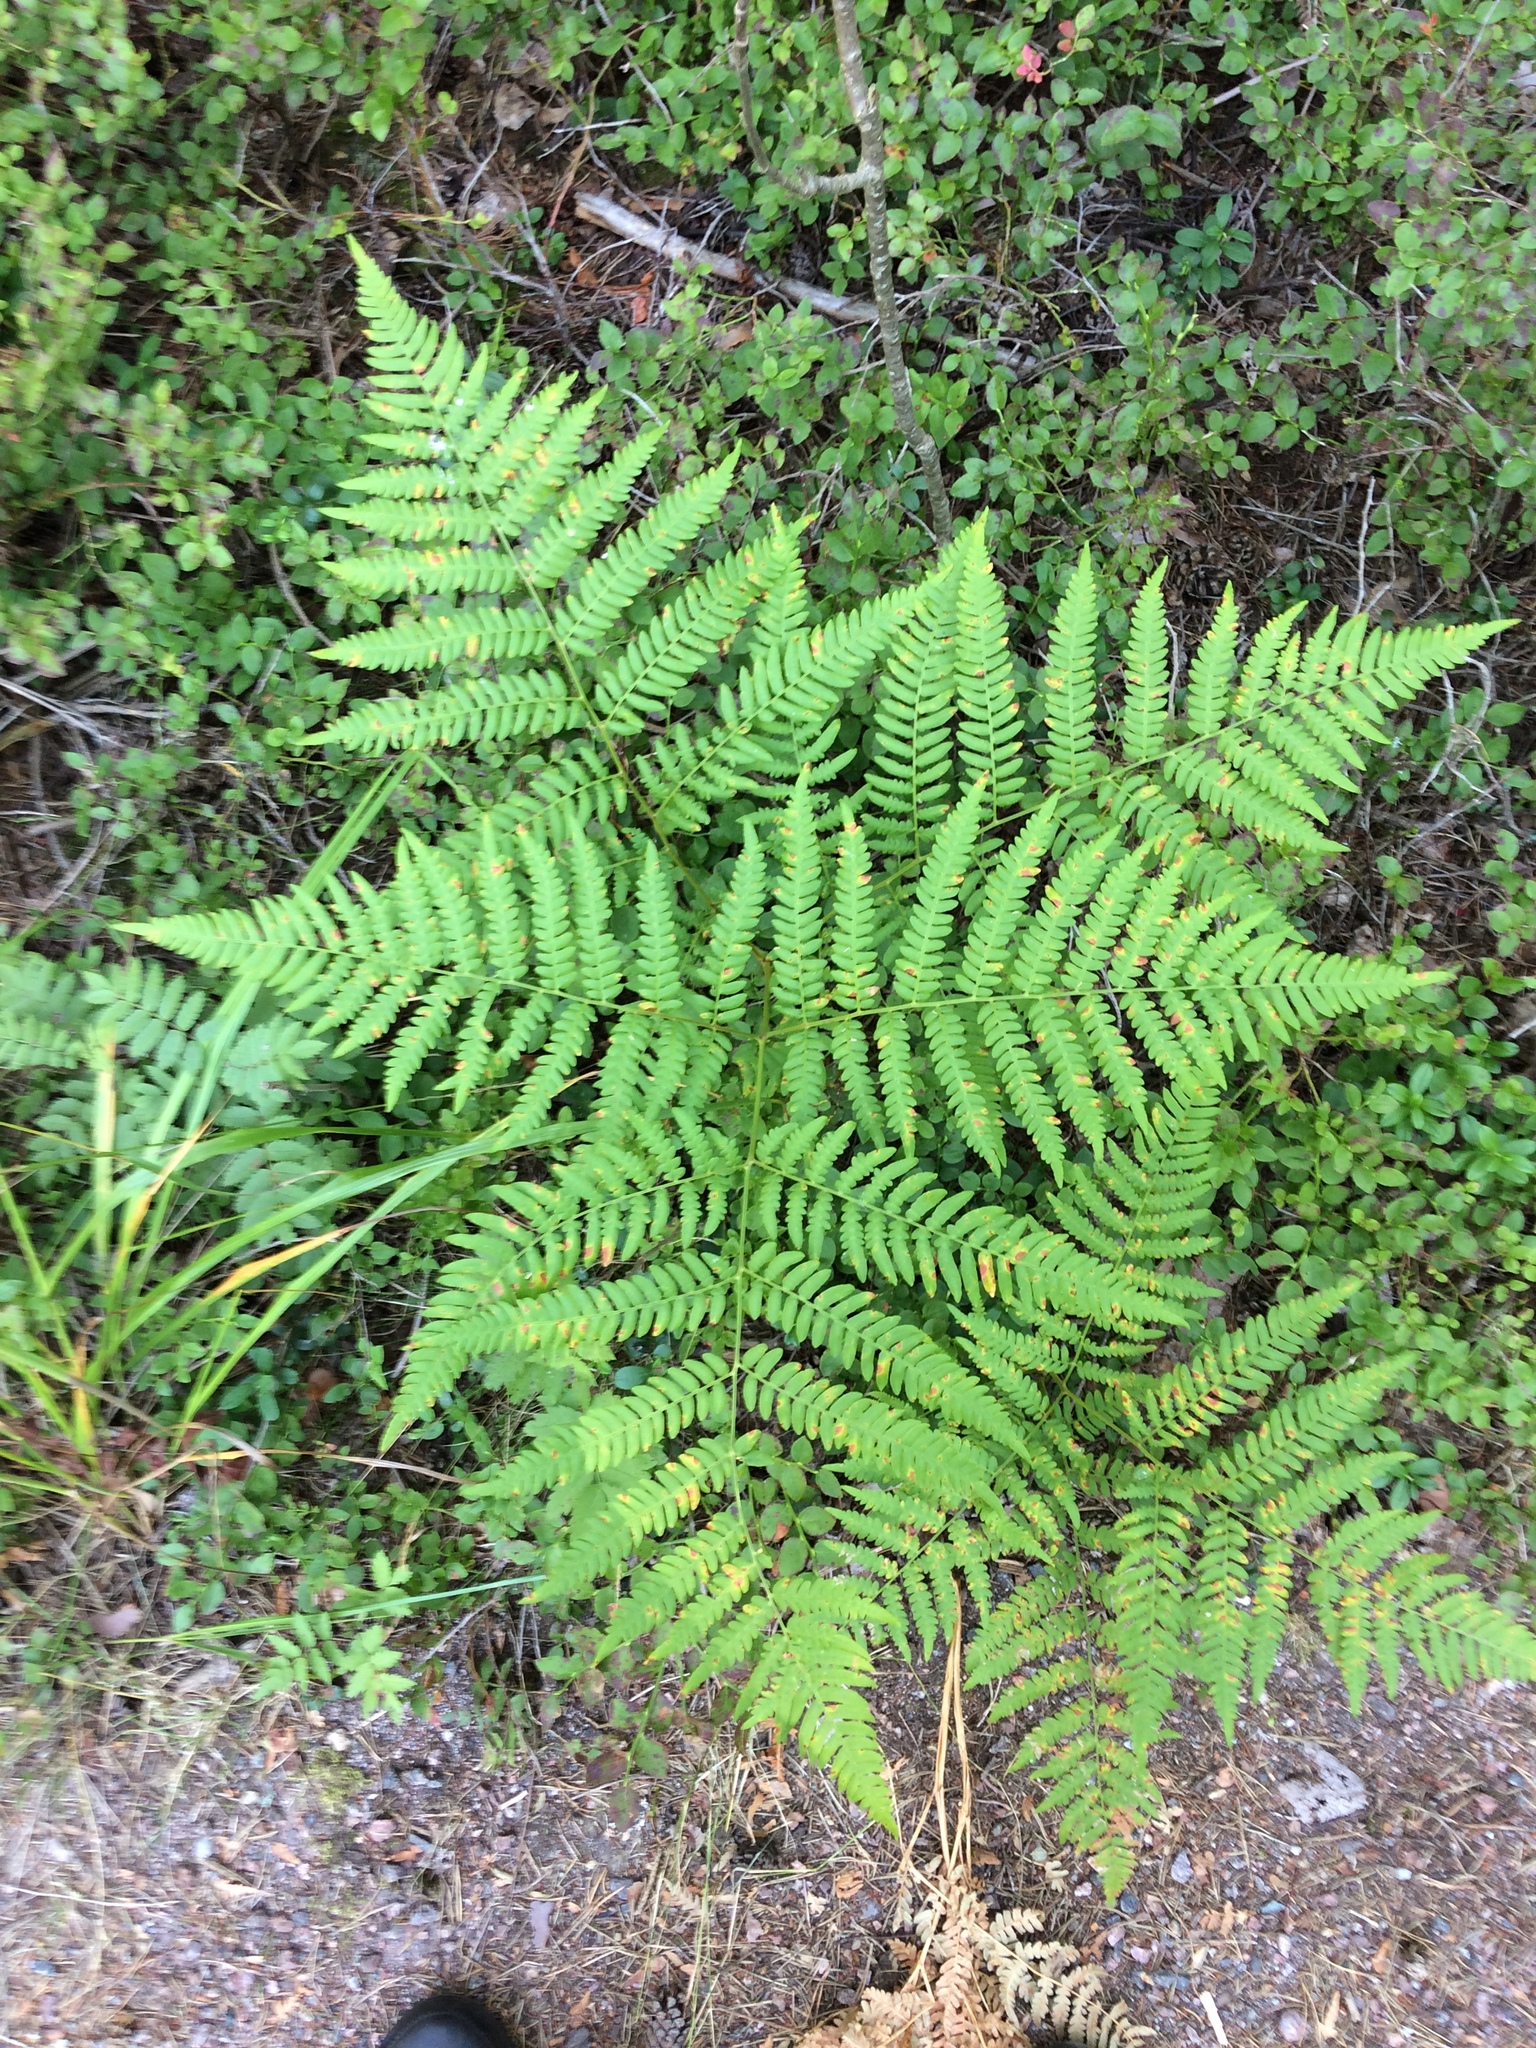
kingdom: Plantae
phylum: Tracheophyta
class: Polypodiopsida
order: Polypodiales
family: Dennstaedtiaceae
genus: Pteridium
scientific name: Pteridium aquilinum
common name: Bracken
